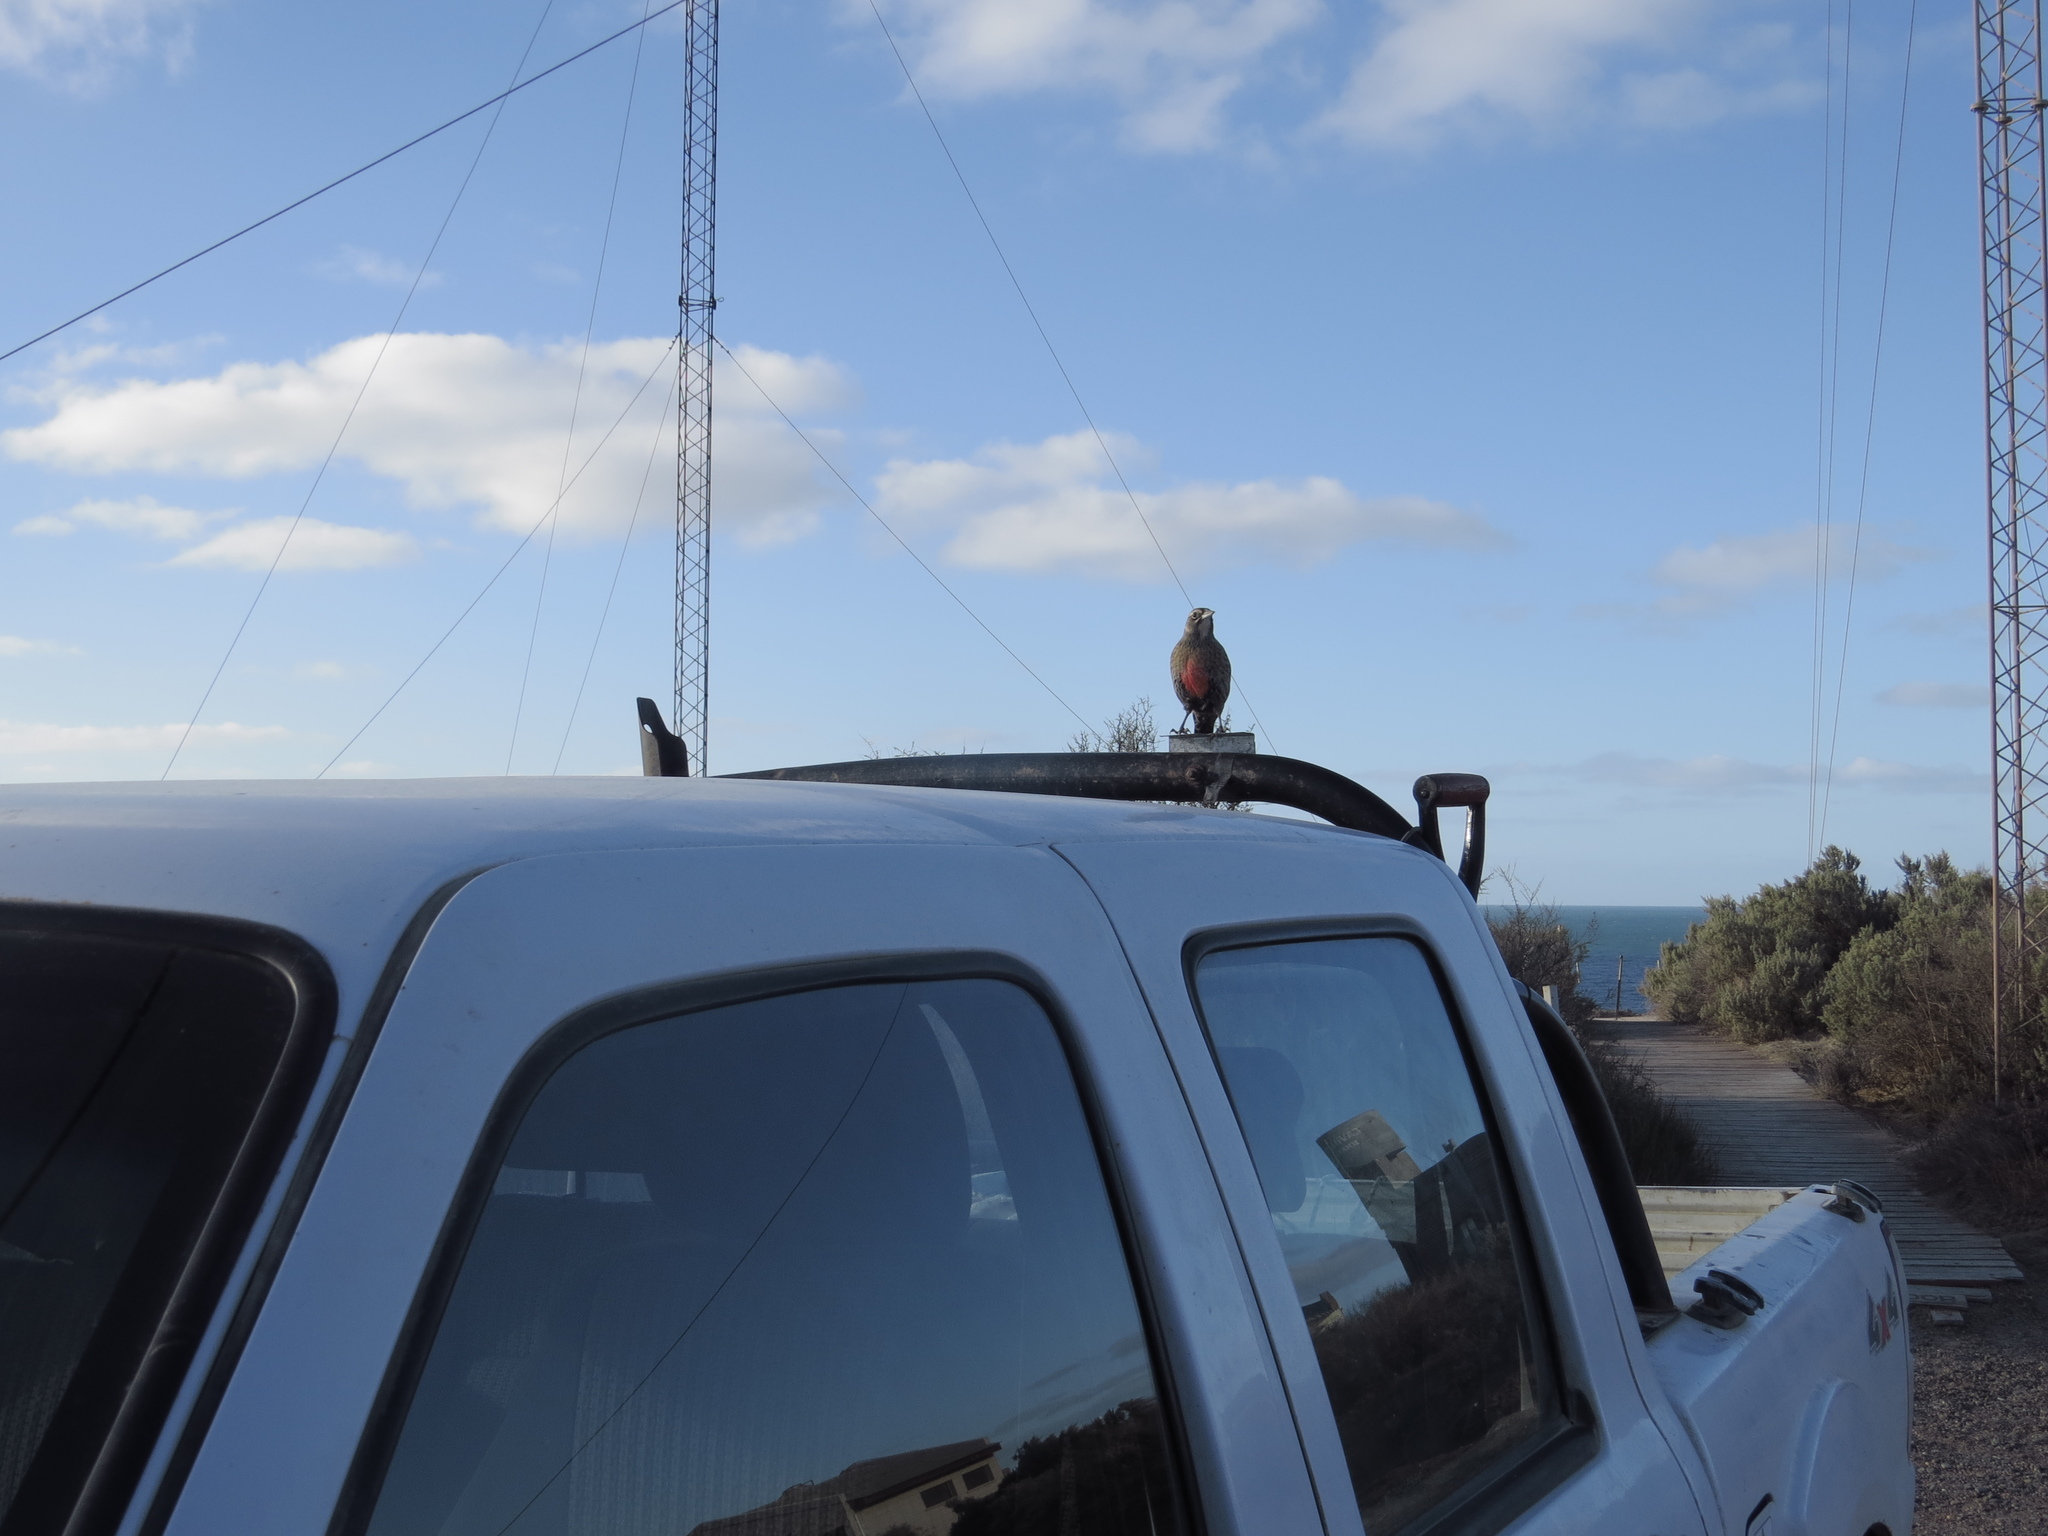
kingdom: Animalia
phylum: Chordata
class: Aves
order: Passeriformes
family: Icteridae
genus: Sturnella
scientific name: Sturnella loyca
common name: Long-tailed meadowlark
